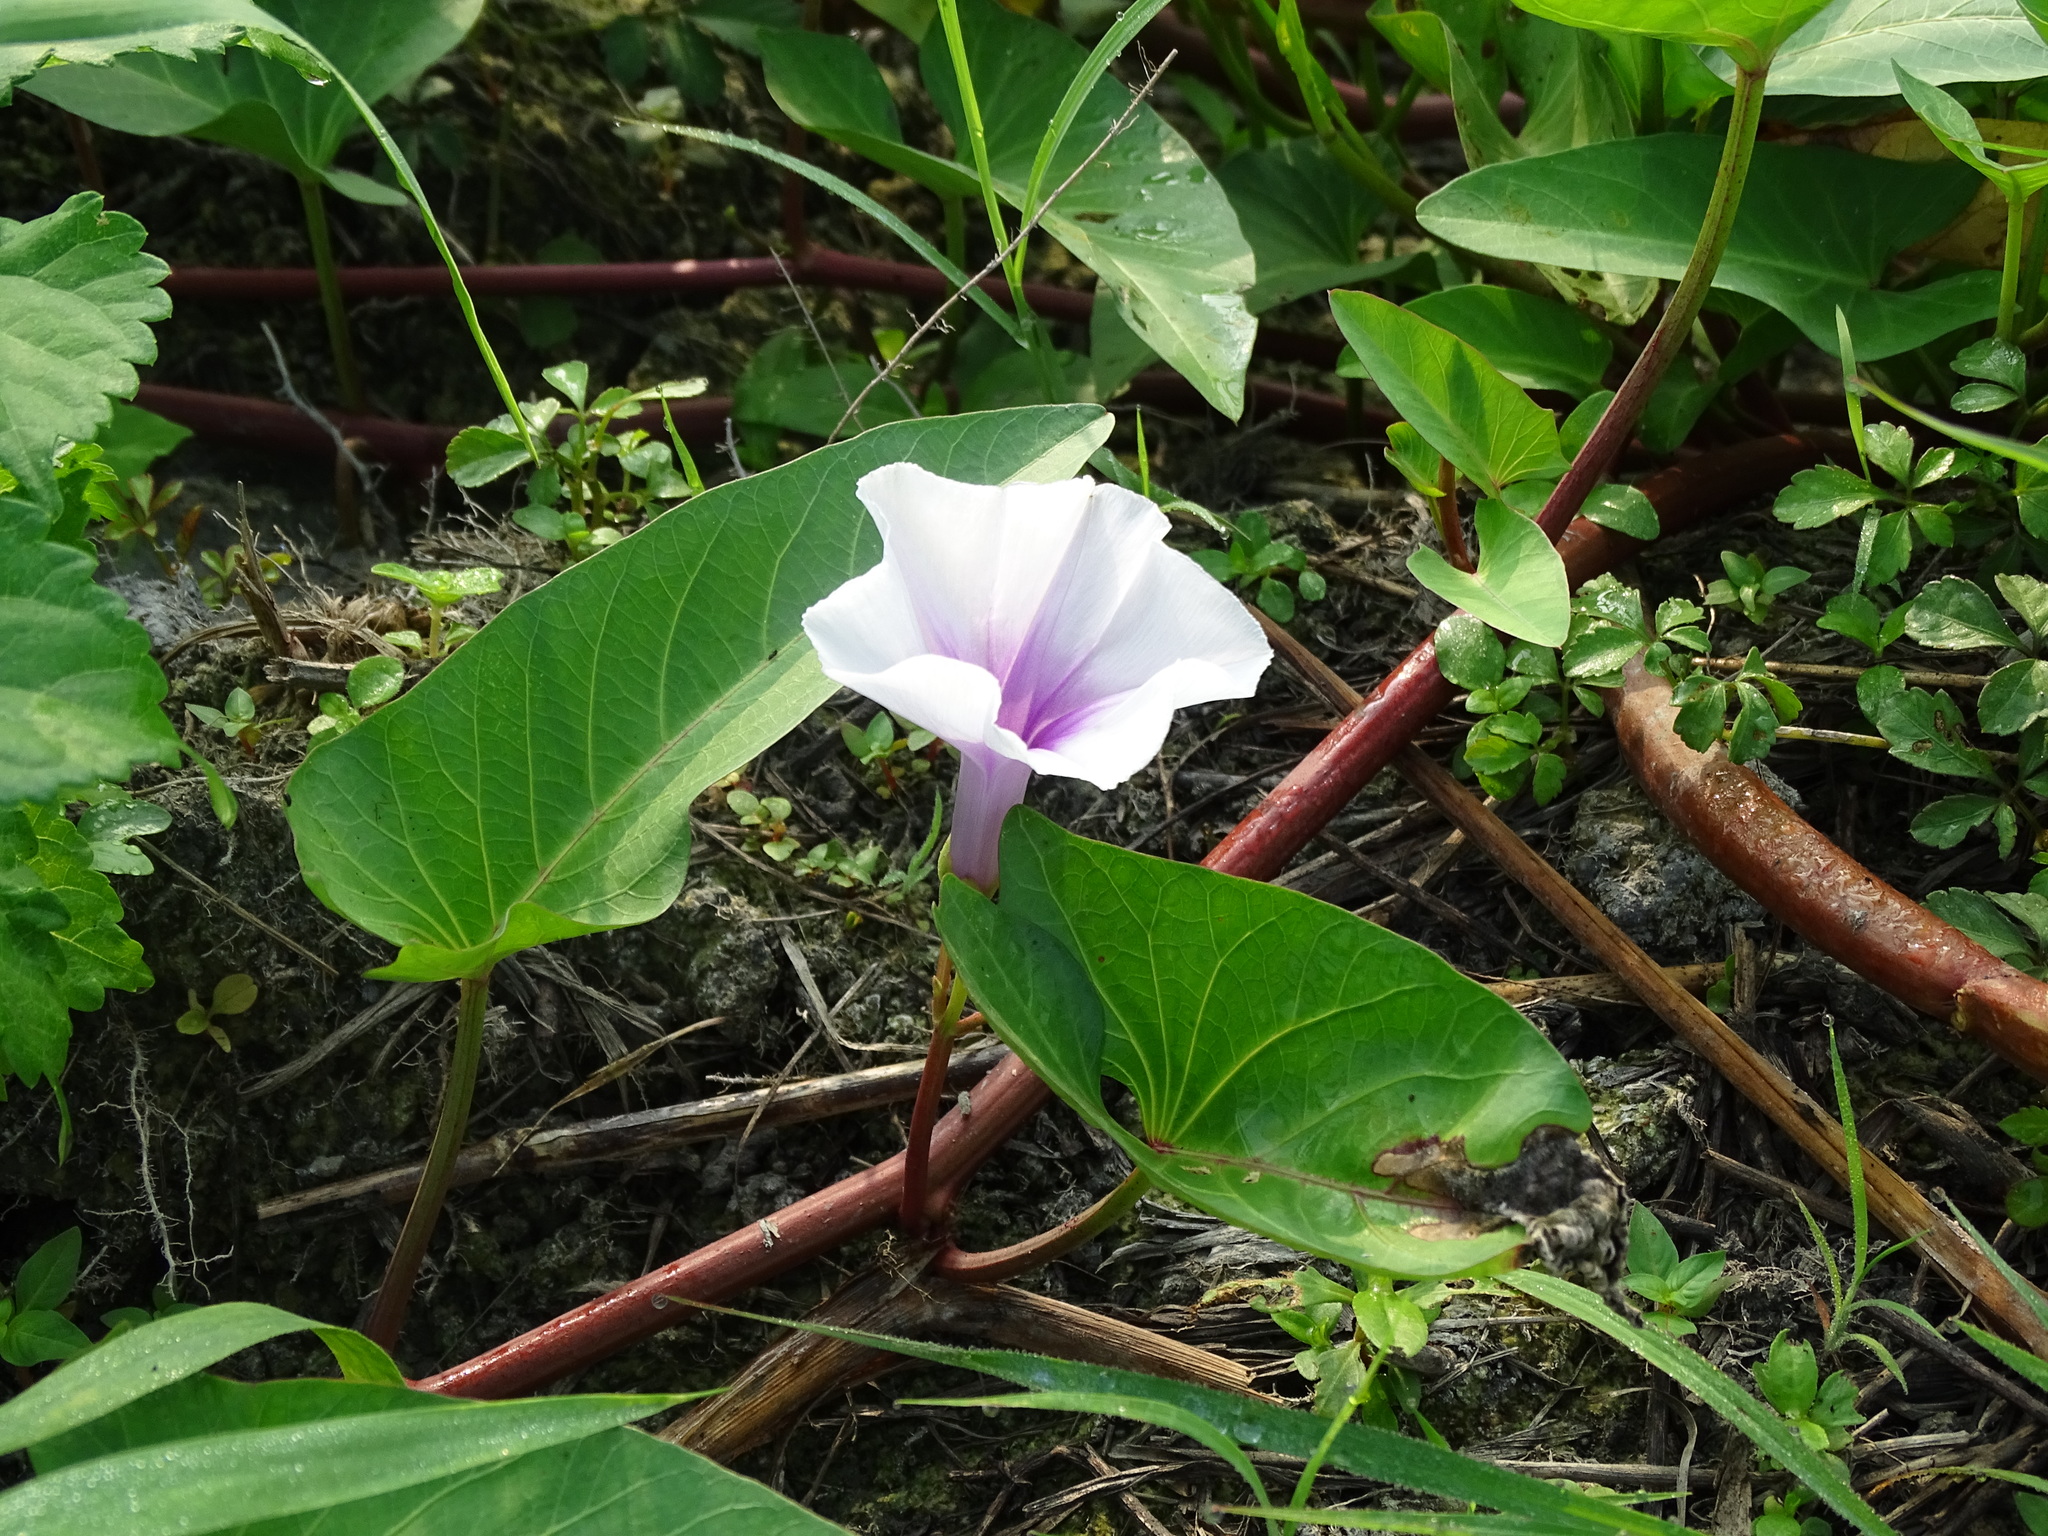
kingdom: Plantae
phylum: Tracheophyta
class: Magnoliopsida
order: Solanales
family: Convolvulaceae
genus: Ipomoea
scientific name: Ipomoea aquatica
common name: Swamp morning-glory
